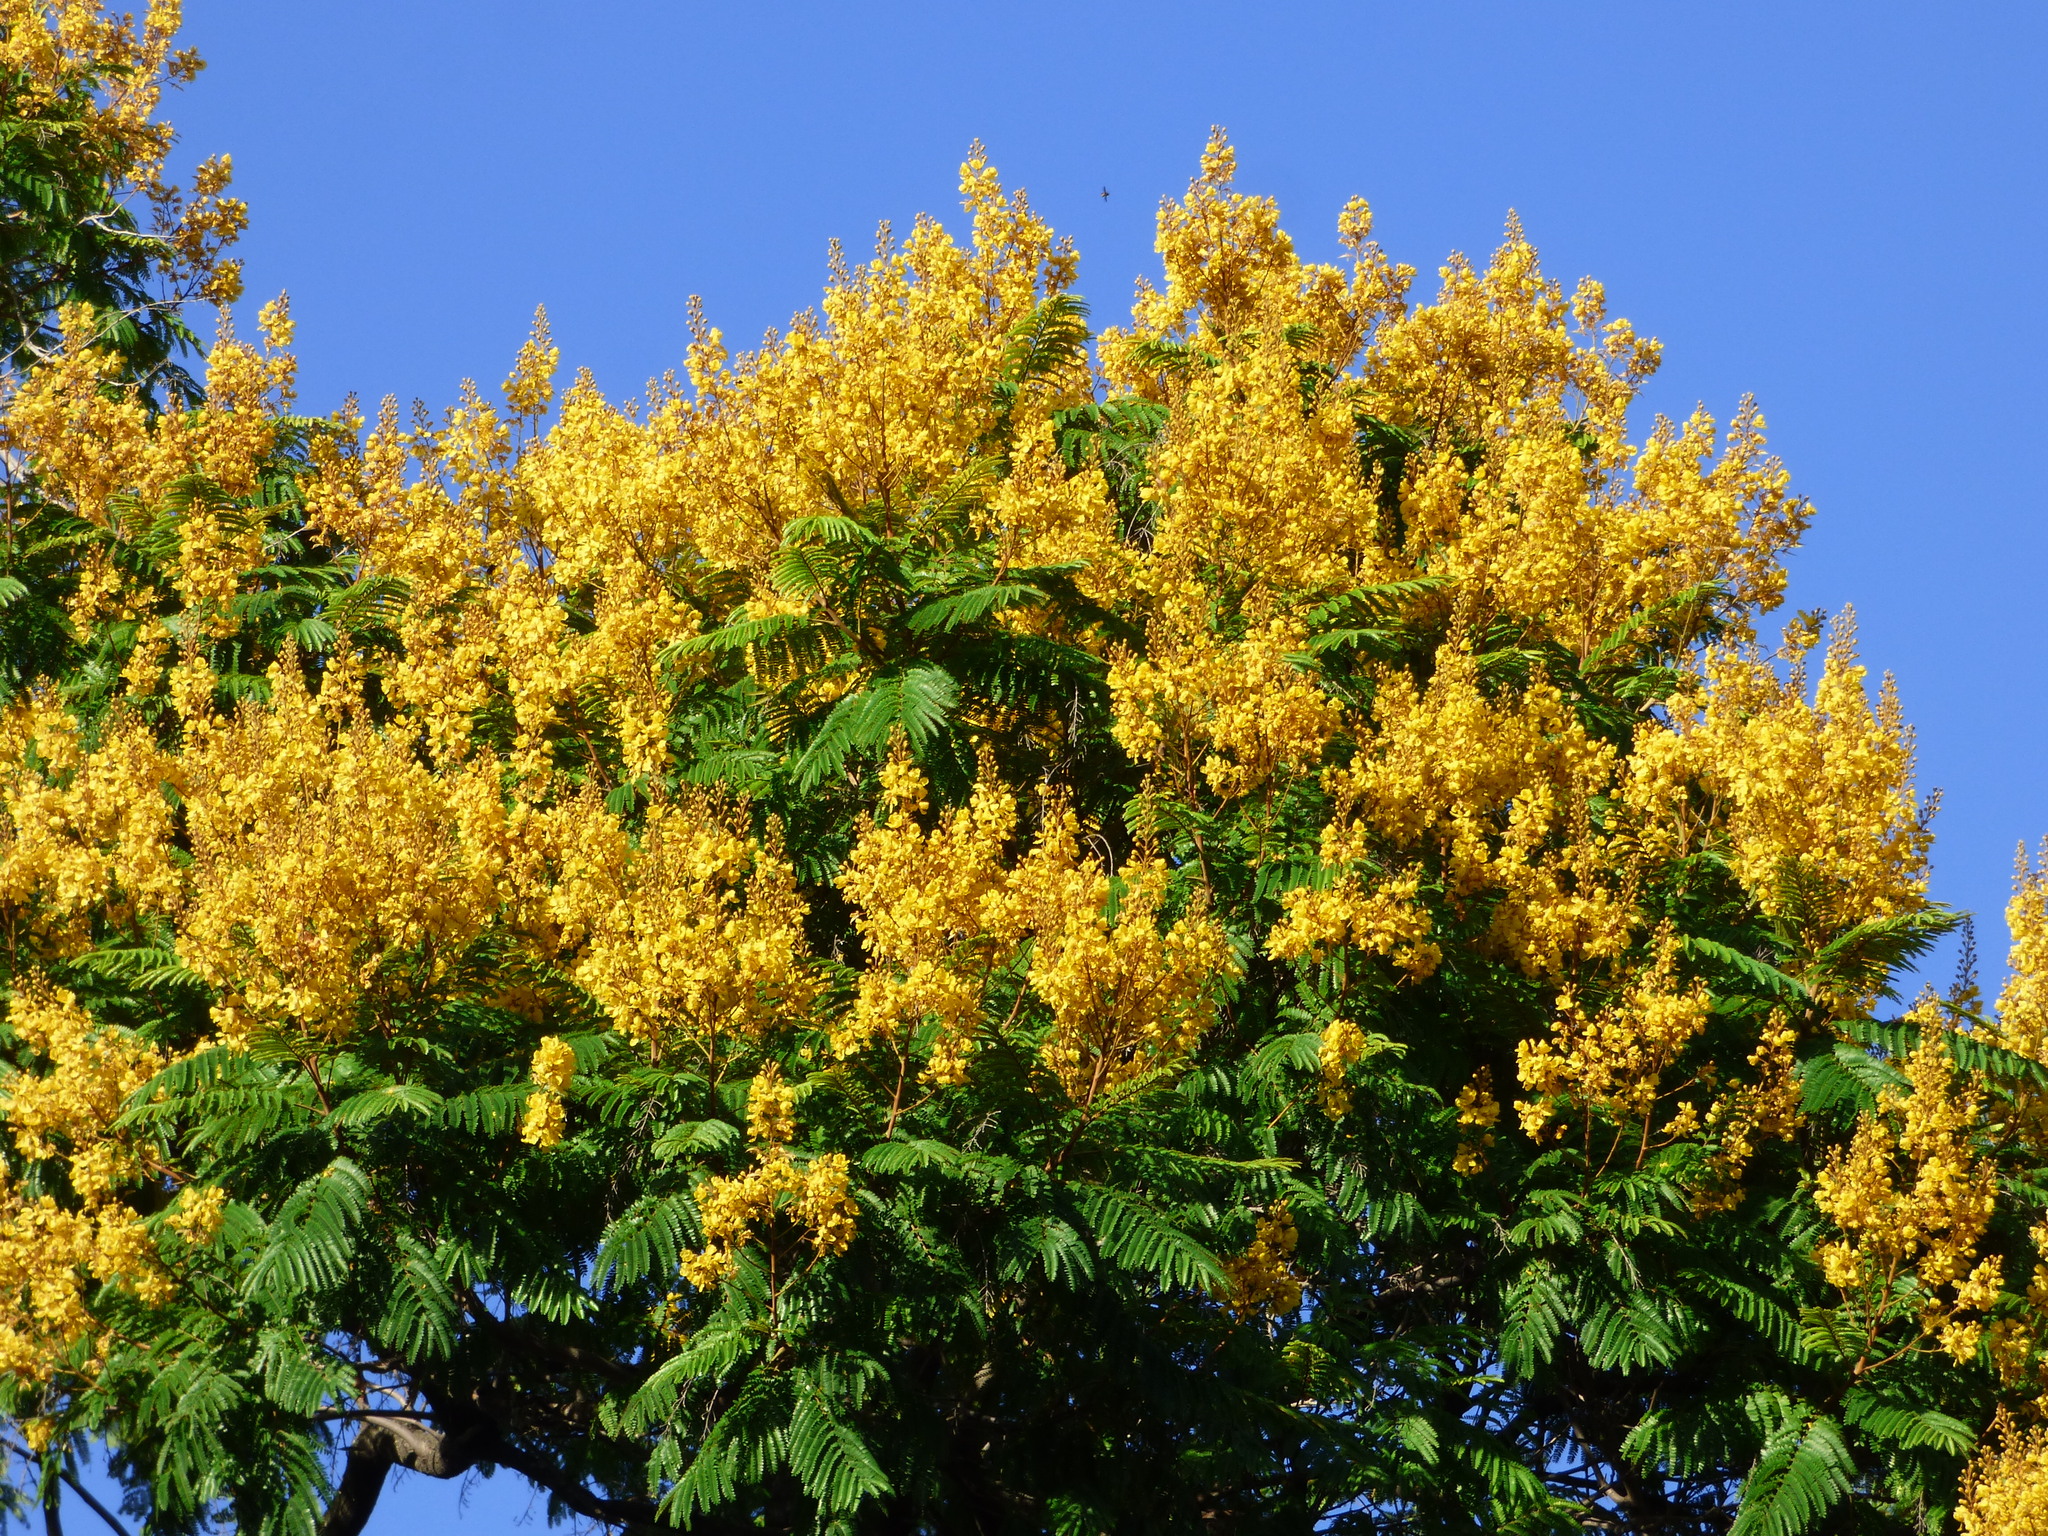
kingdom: Plantae
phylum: Tracheophyta
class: Magnoliopsida
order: Fabales
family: Fabaceae
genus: Peltophorum
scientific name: Peltophorum dubium
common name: Horsebush
